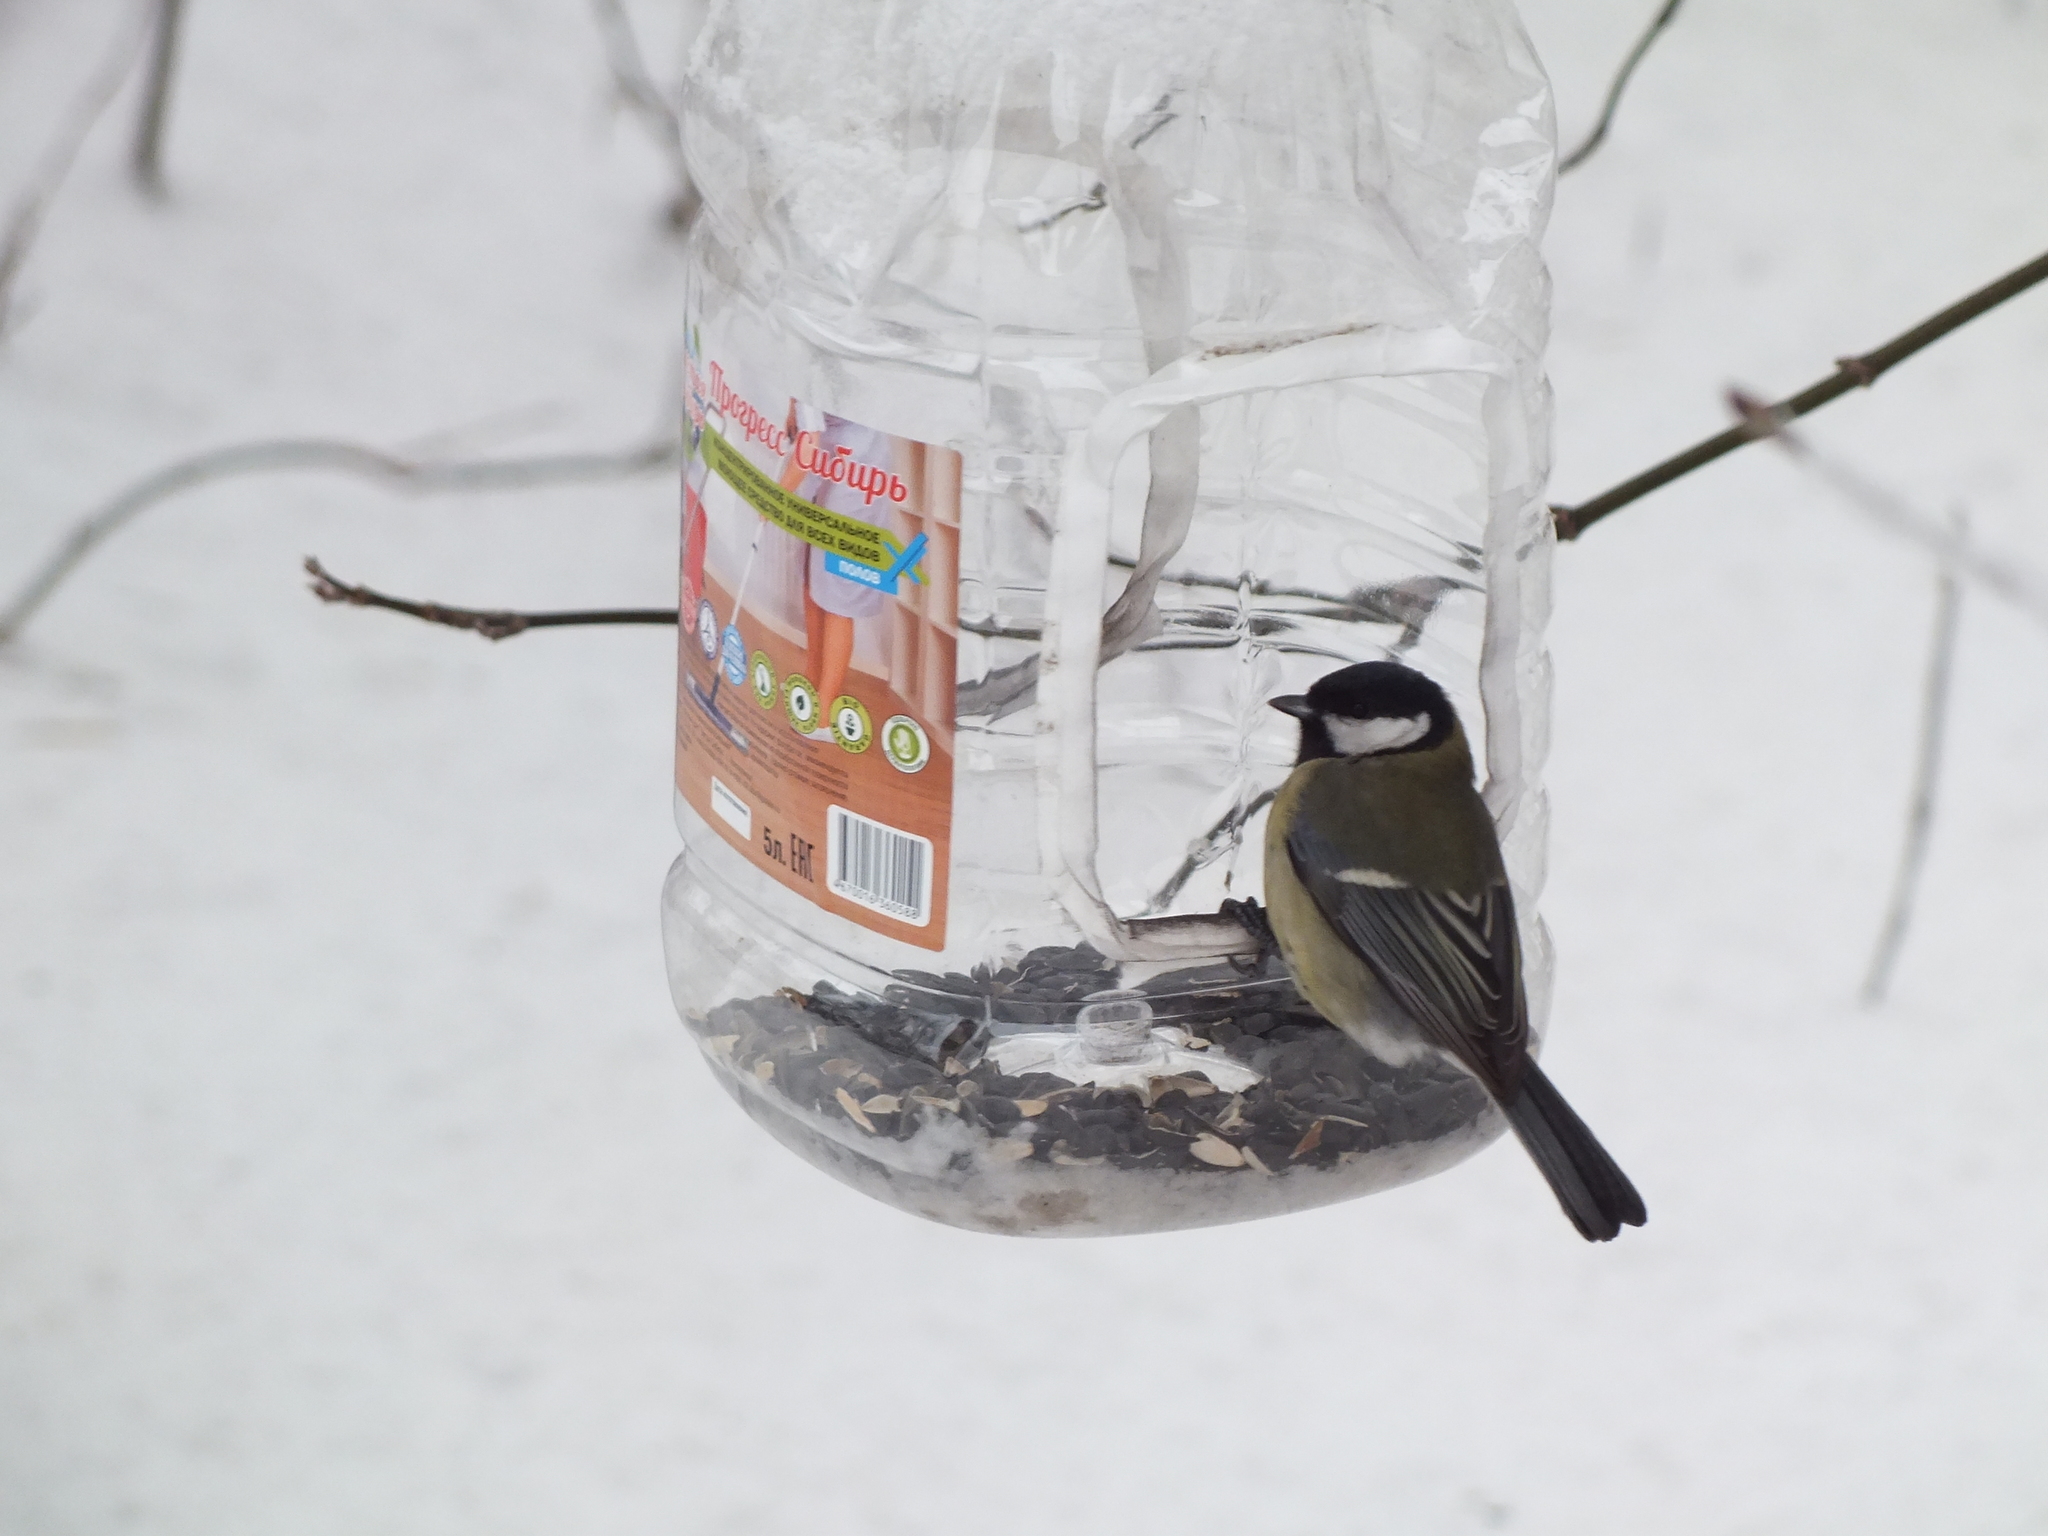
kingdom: Animalia
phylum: Chordata
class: Aves
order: Passeriformes
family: Paridae
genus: Parus
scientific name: Parus major
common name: Great tit
